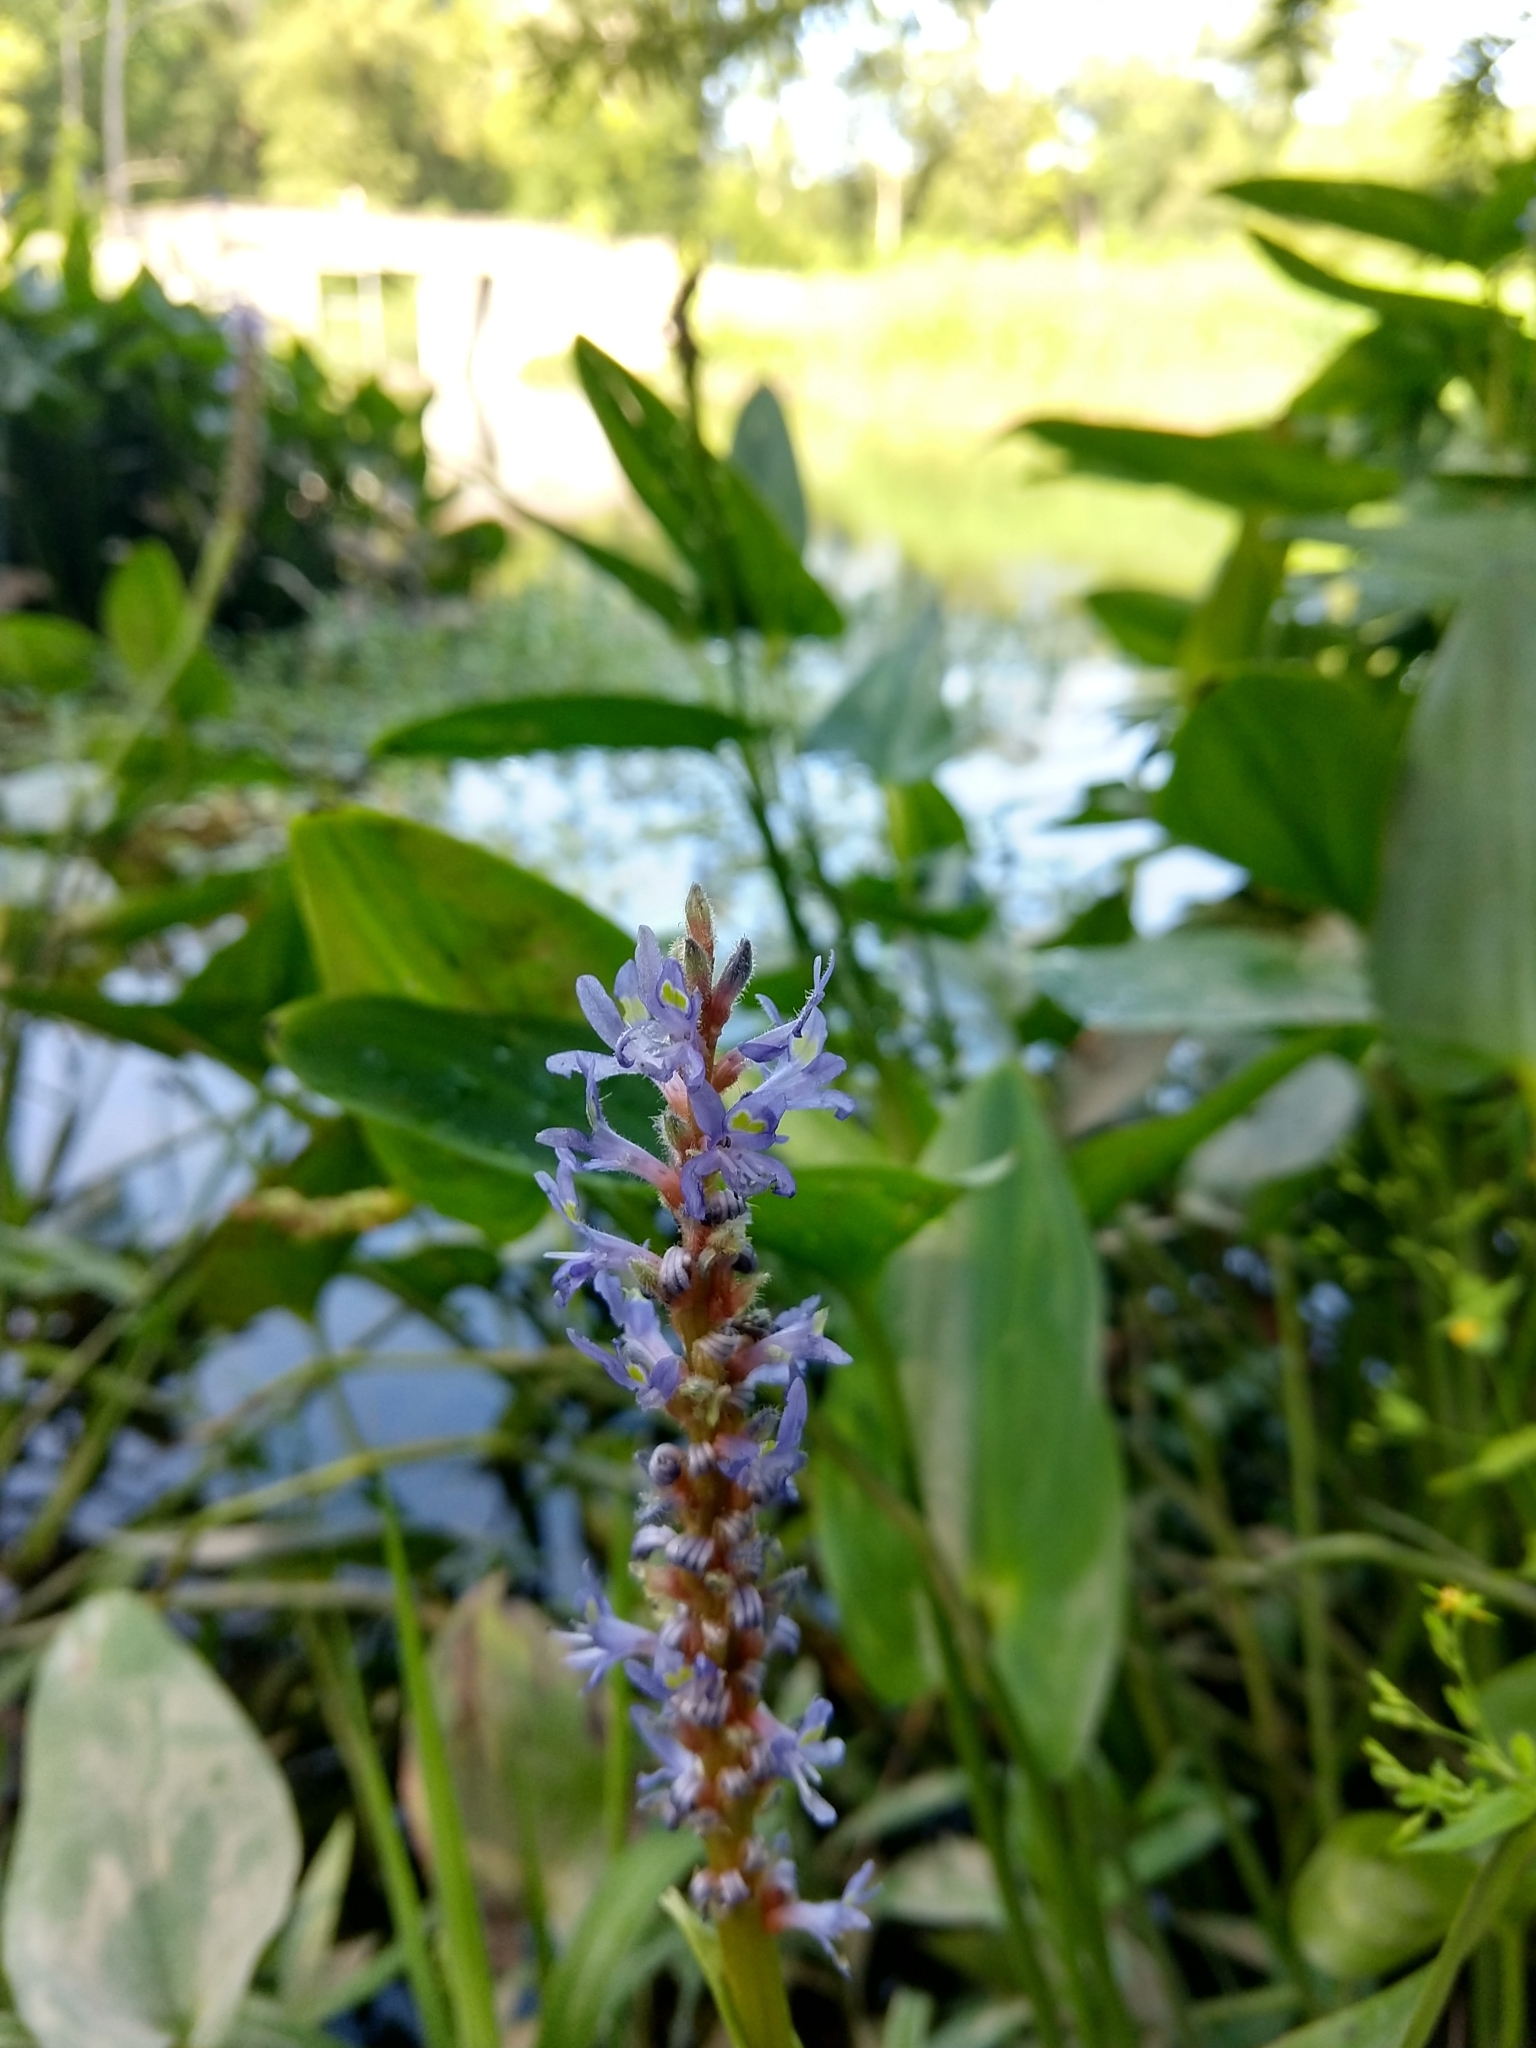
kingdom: Plantae
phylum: Tracheophyta
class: Liliopsida
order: Commelinales
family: Pontederiaceae
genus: Pontederia
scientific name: Pontederia cordata
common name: Pickerelweed
